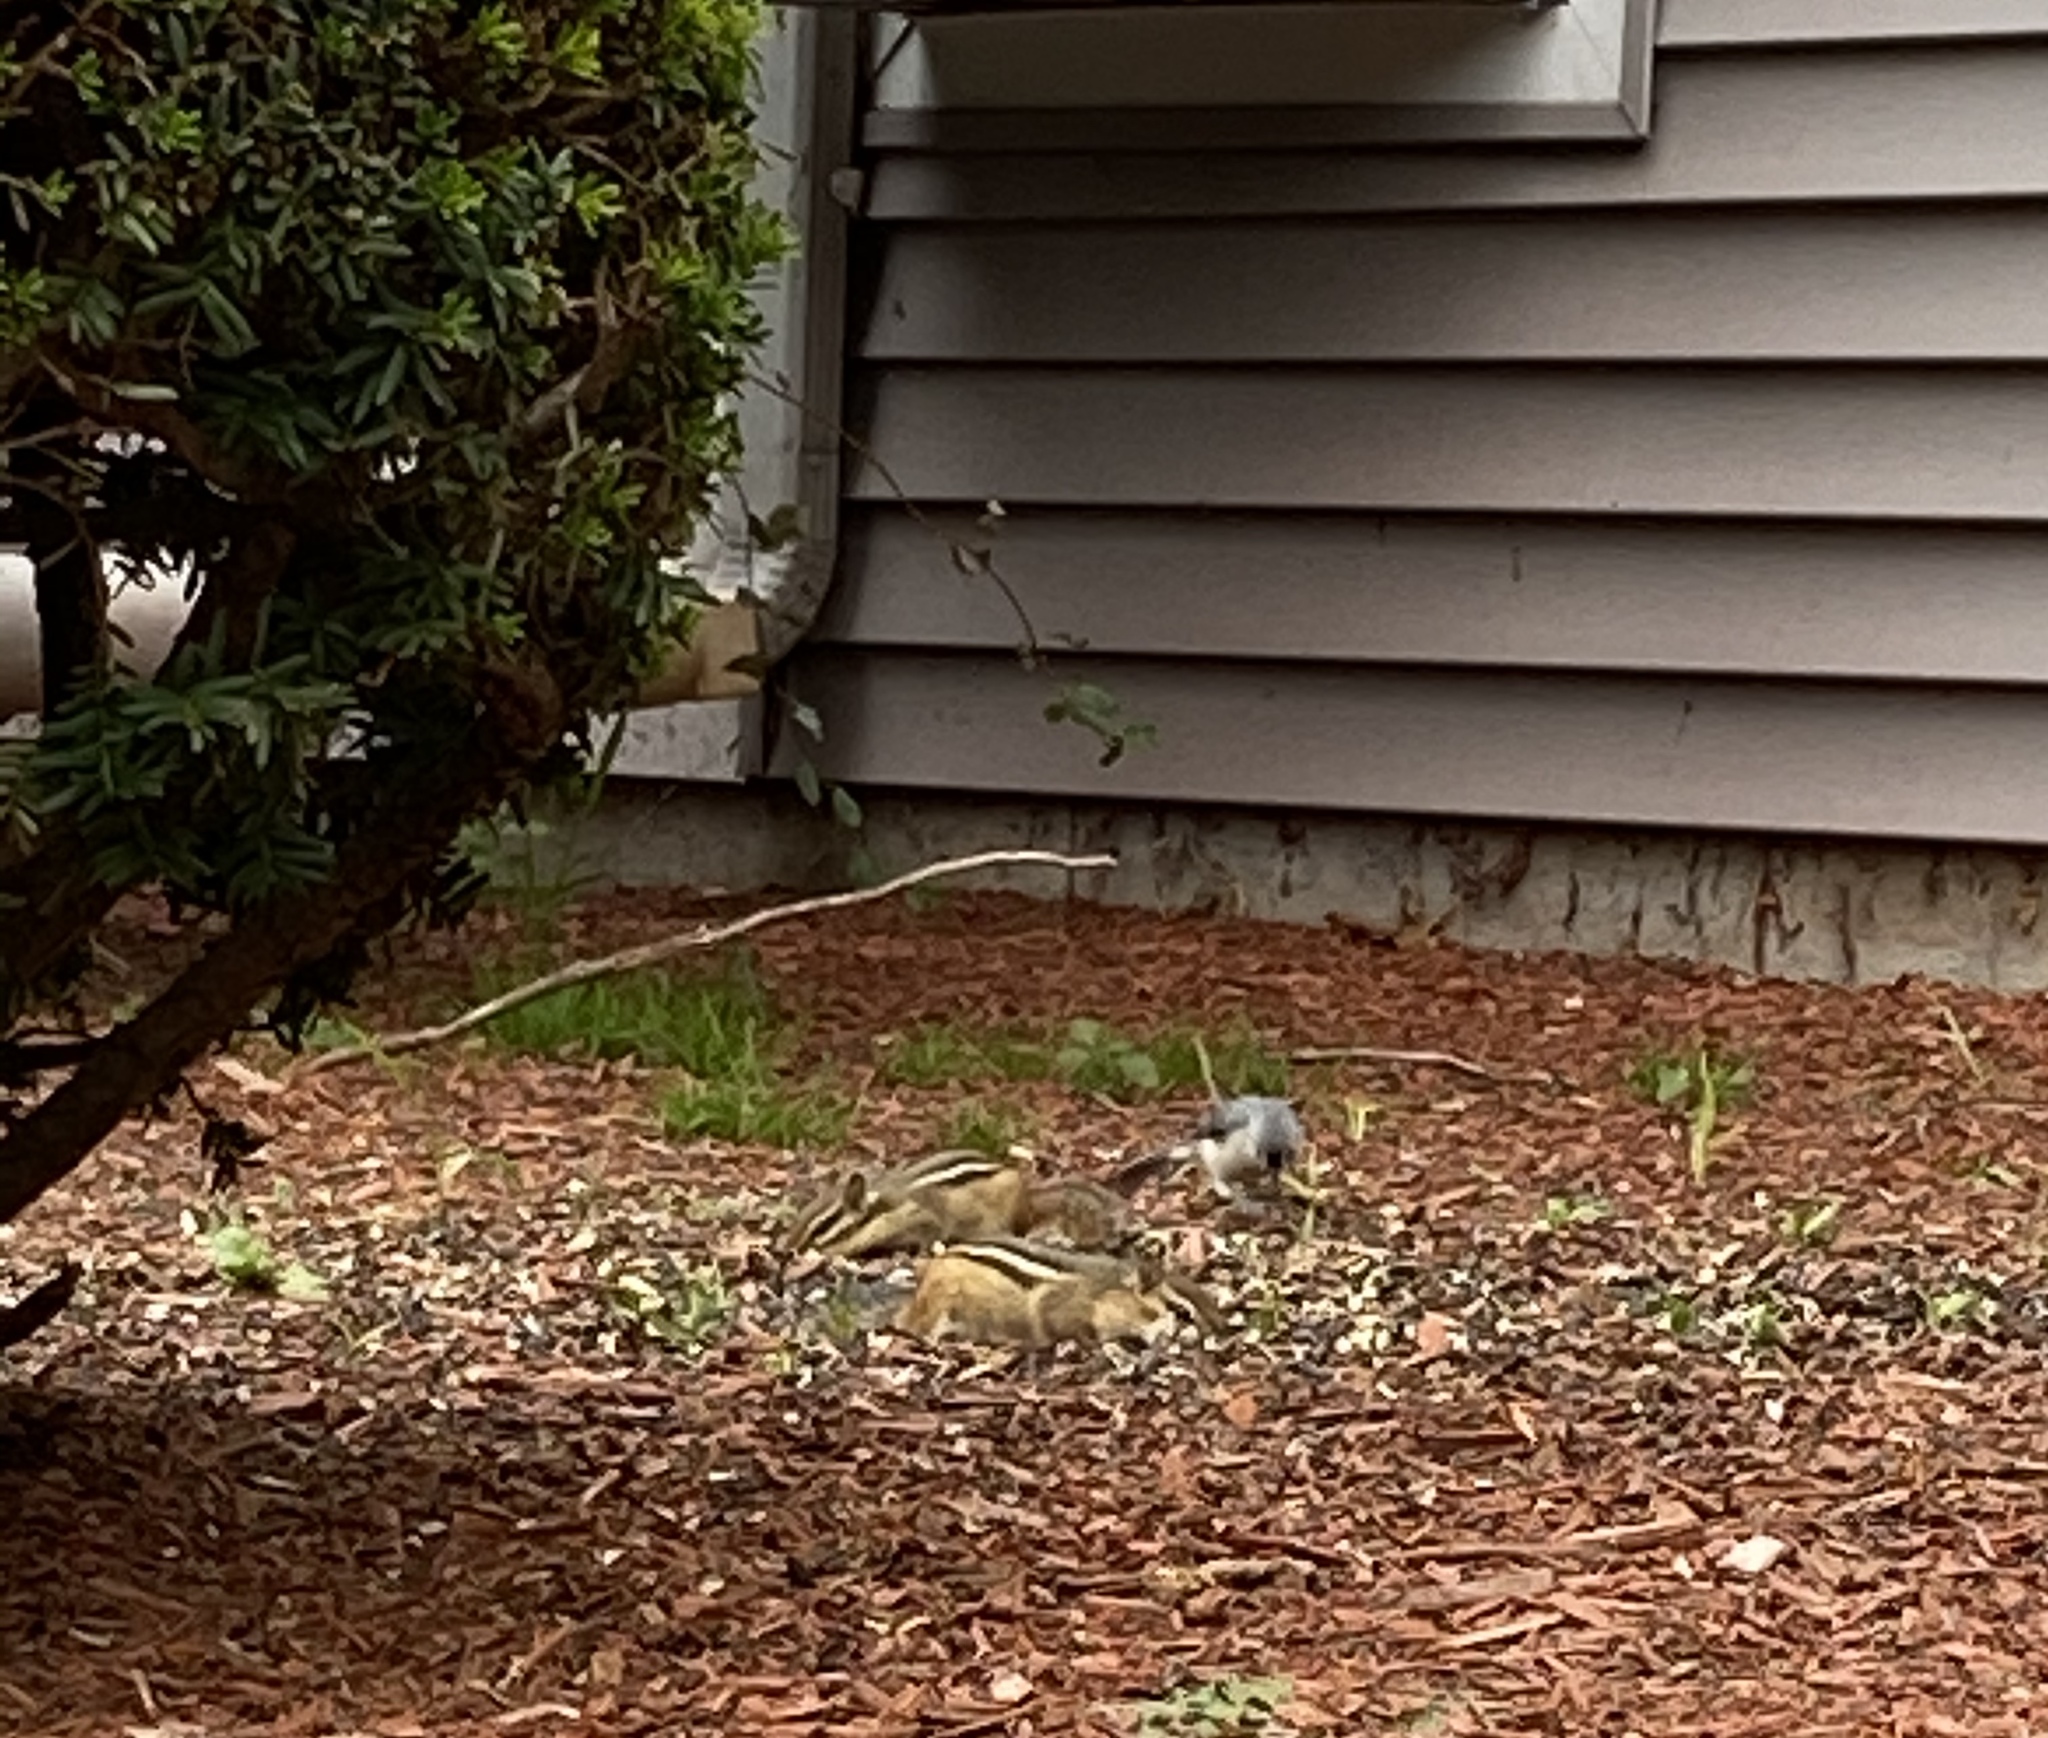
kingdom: Animalia
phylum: Chordata
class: Mammalia
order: Rodentia
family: Sciuridae
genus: Tamias
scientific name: Tamias striatus
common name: Eastern chipmunk
